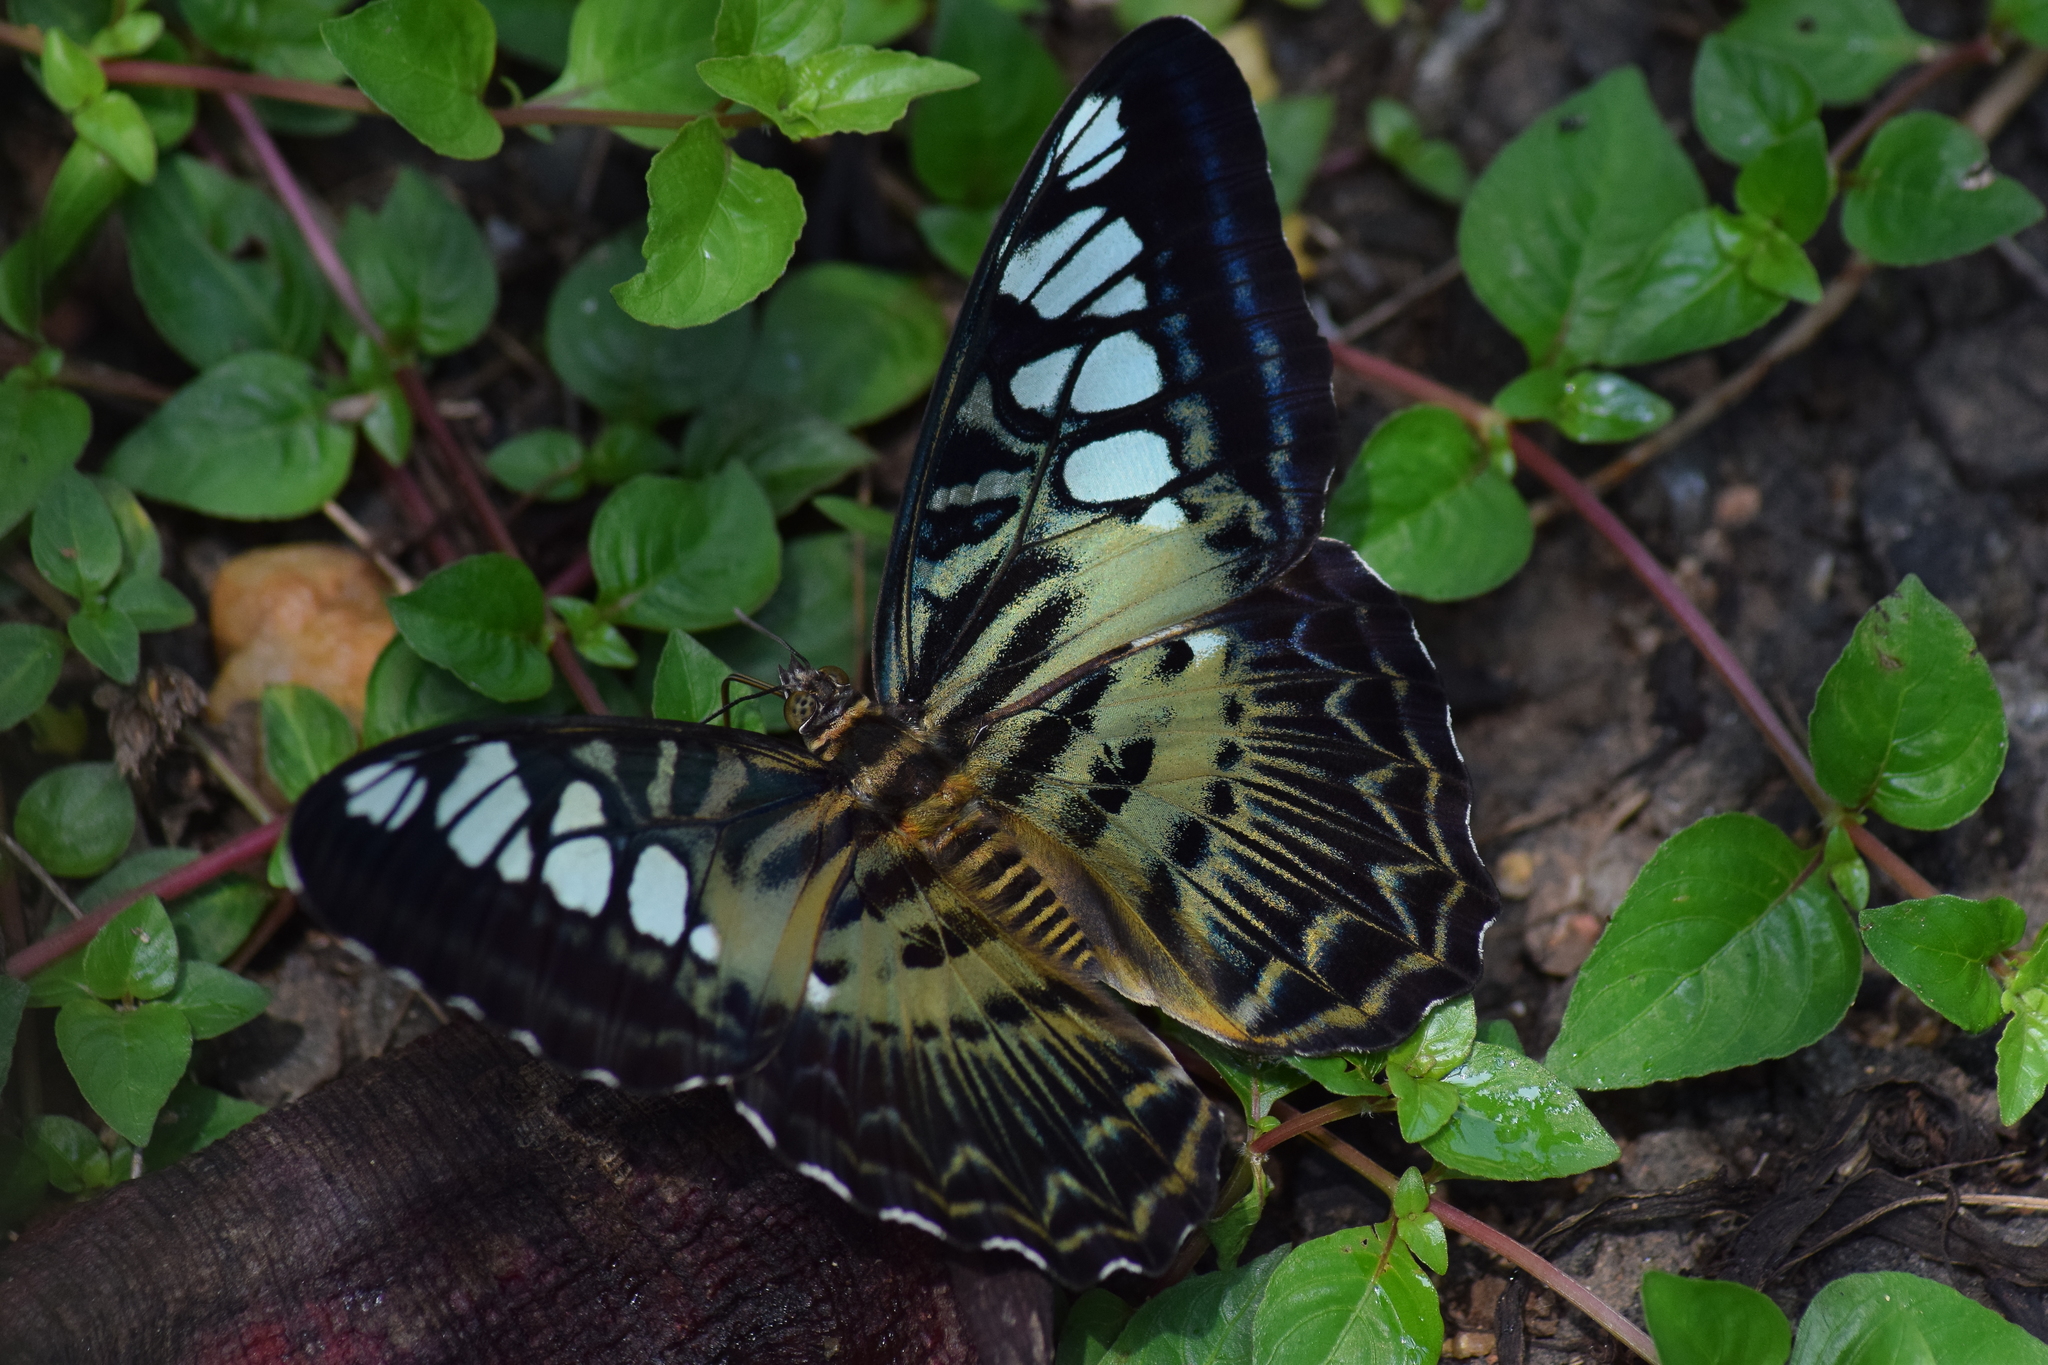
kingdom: Animalia
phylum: Arthropoda
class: Insecta
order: Lepidoptera
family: Nymphalidae
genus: Kallima
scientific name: Kallima sylvia
